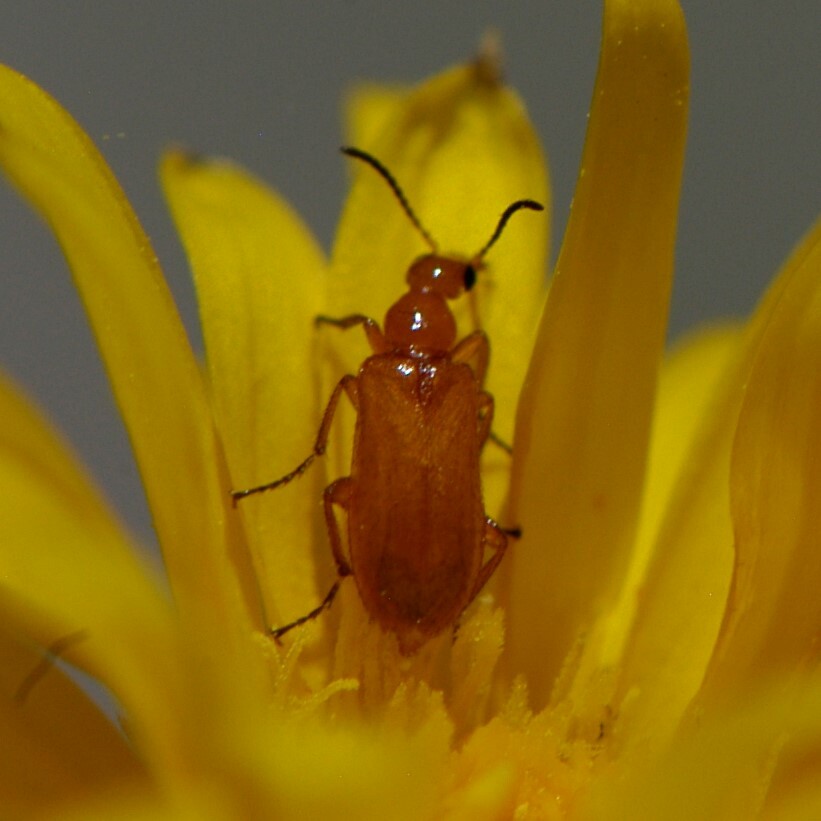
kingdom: Animalia
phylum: Arthropoda
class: Insecta
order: Coleoptera
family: Meloidae
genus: Gnathium
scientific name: Gnathium nitidum
